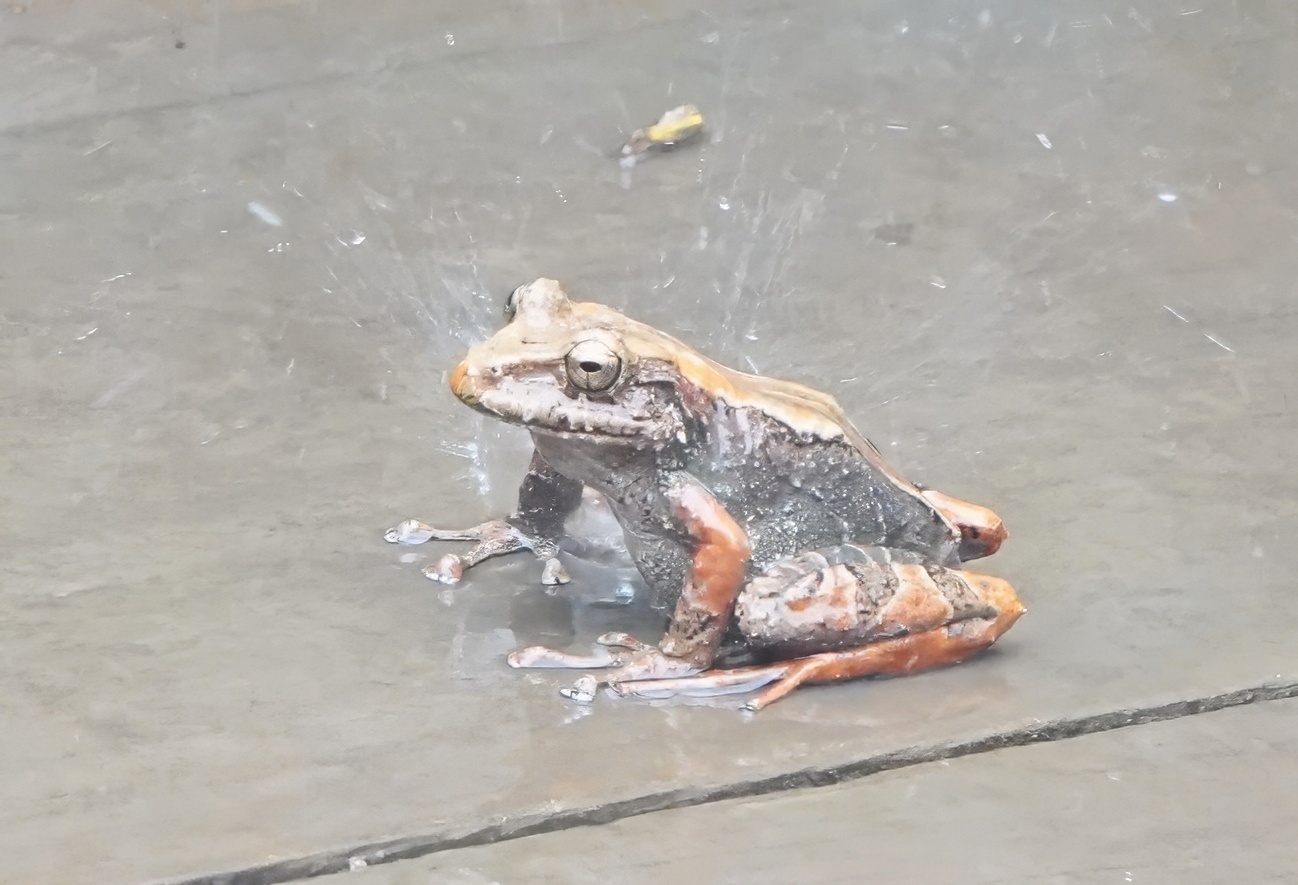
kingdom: Animalia
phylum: Chordata
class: Amphibia
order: Anura
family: Craugastoridae
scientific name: Craugastoridae
